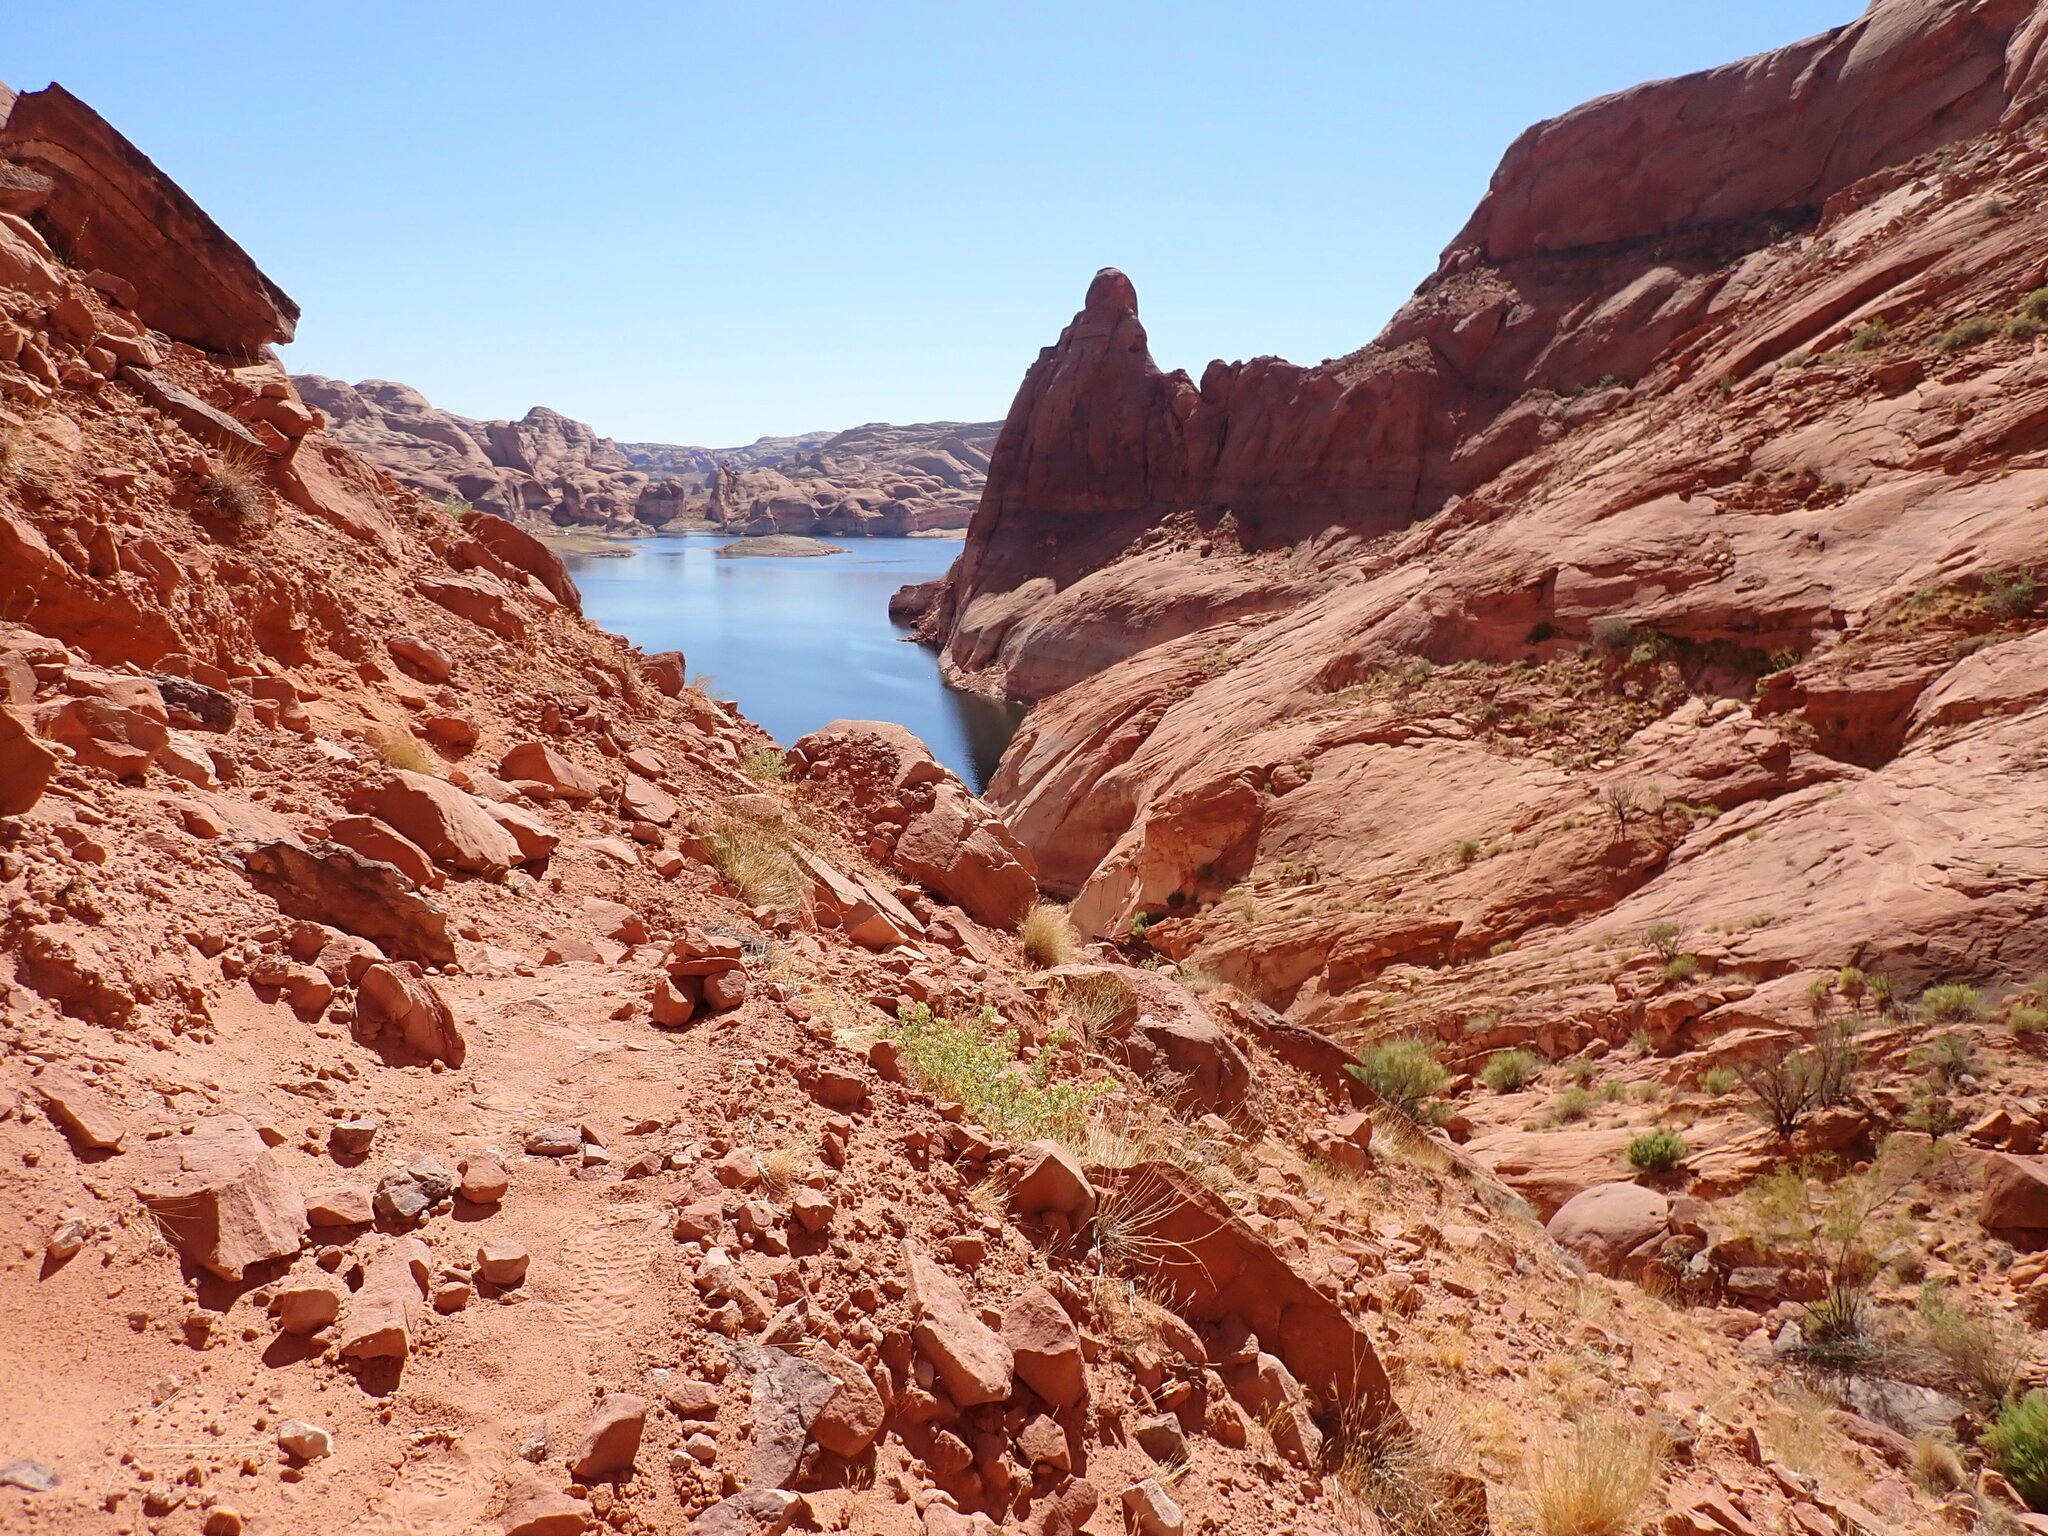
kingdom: Plantae
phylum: Tracheophyta
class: Magnoliopsida
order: Solanales
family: Solanaceae
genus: Datura
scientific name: Datura wrightii
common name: Sacred thorn-apple
